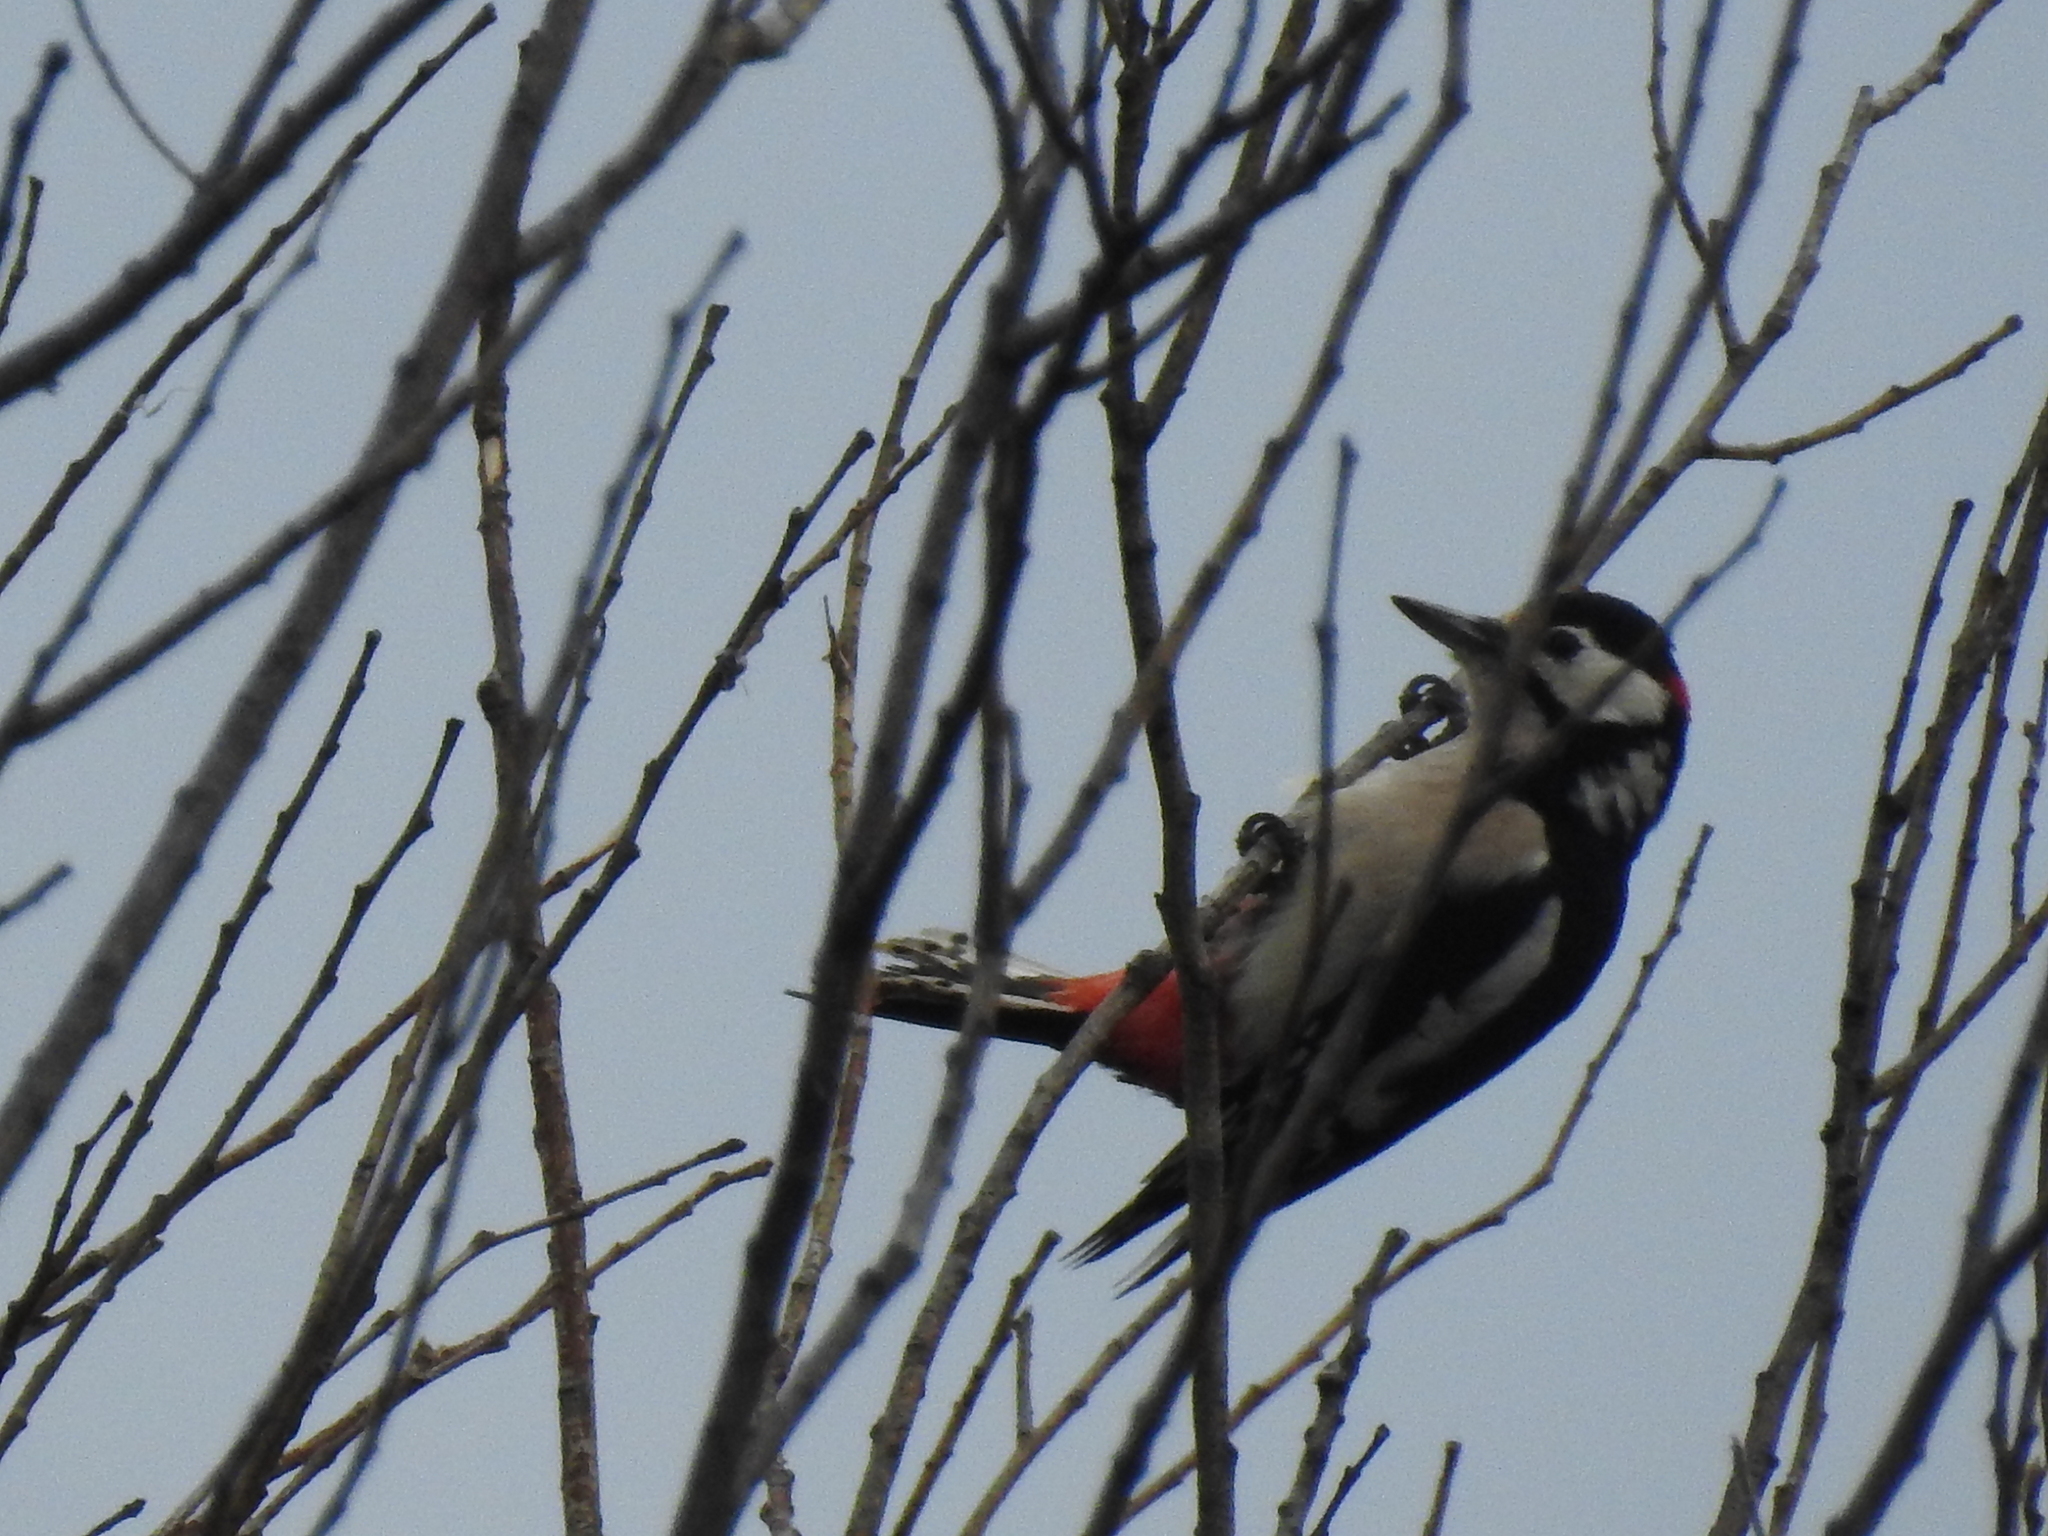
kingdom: Animalia
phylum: Chordata
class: Aves
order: Piciformes
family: Picidae
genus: Dendrocopos
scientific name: Dendrocopos major
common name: Great spotted woodpecker
